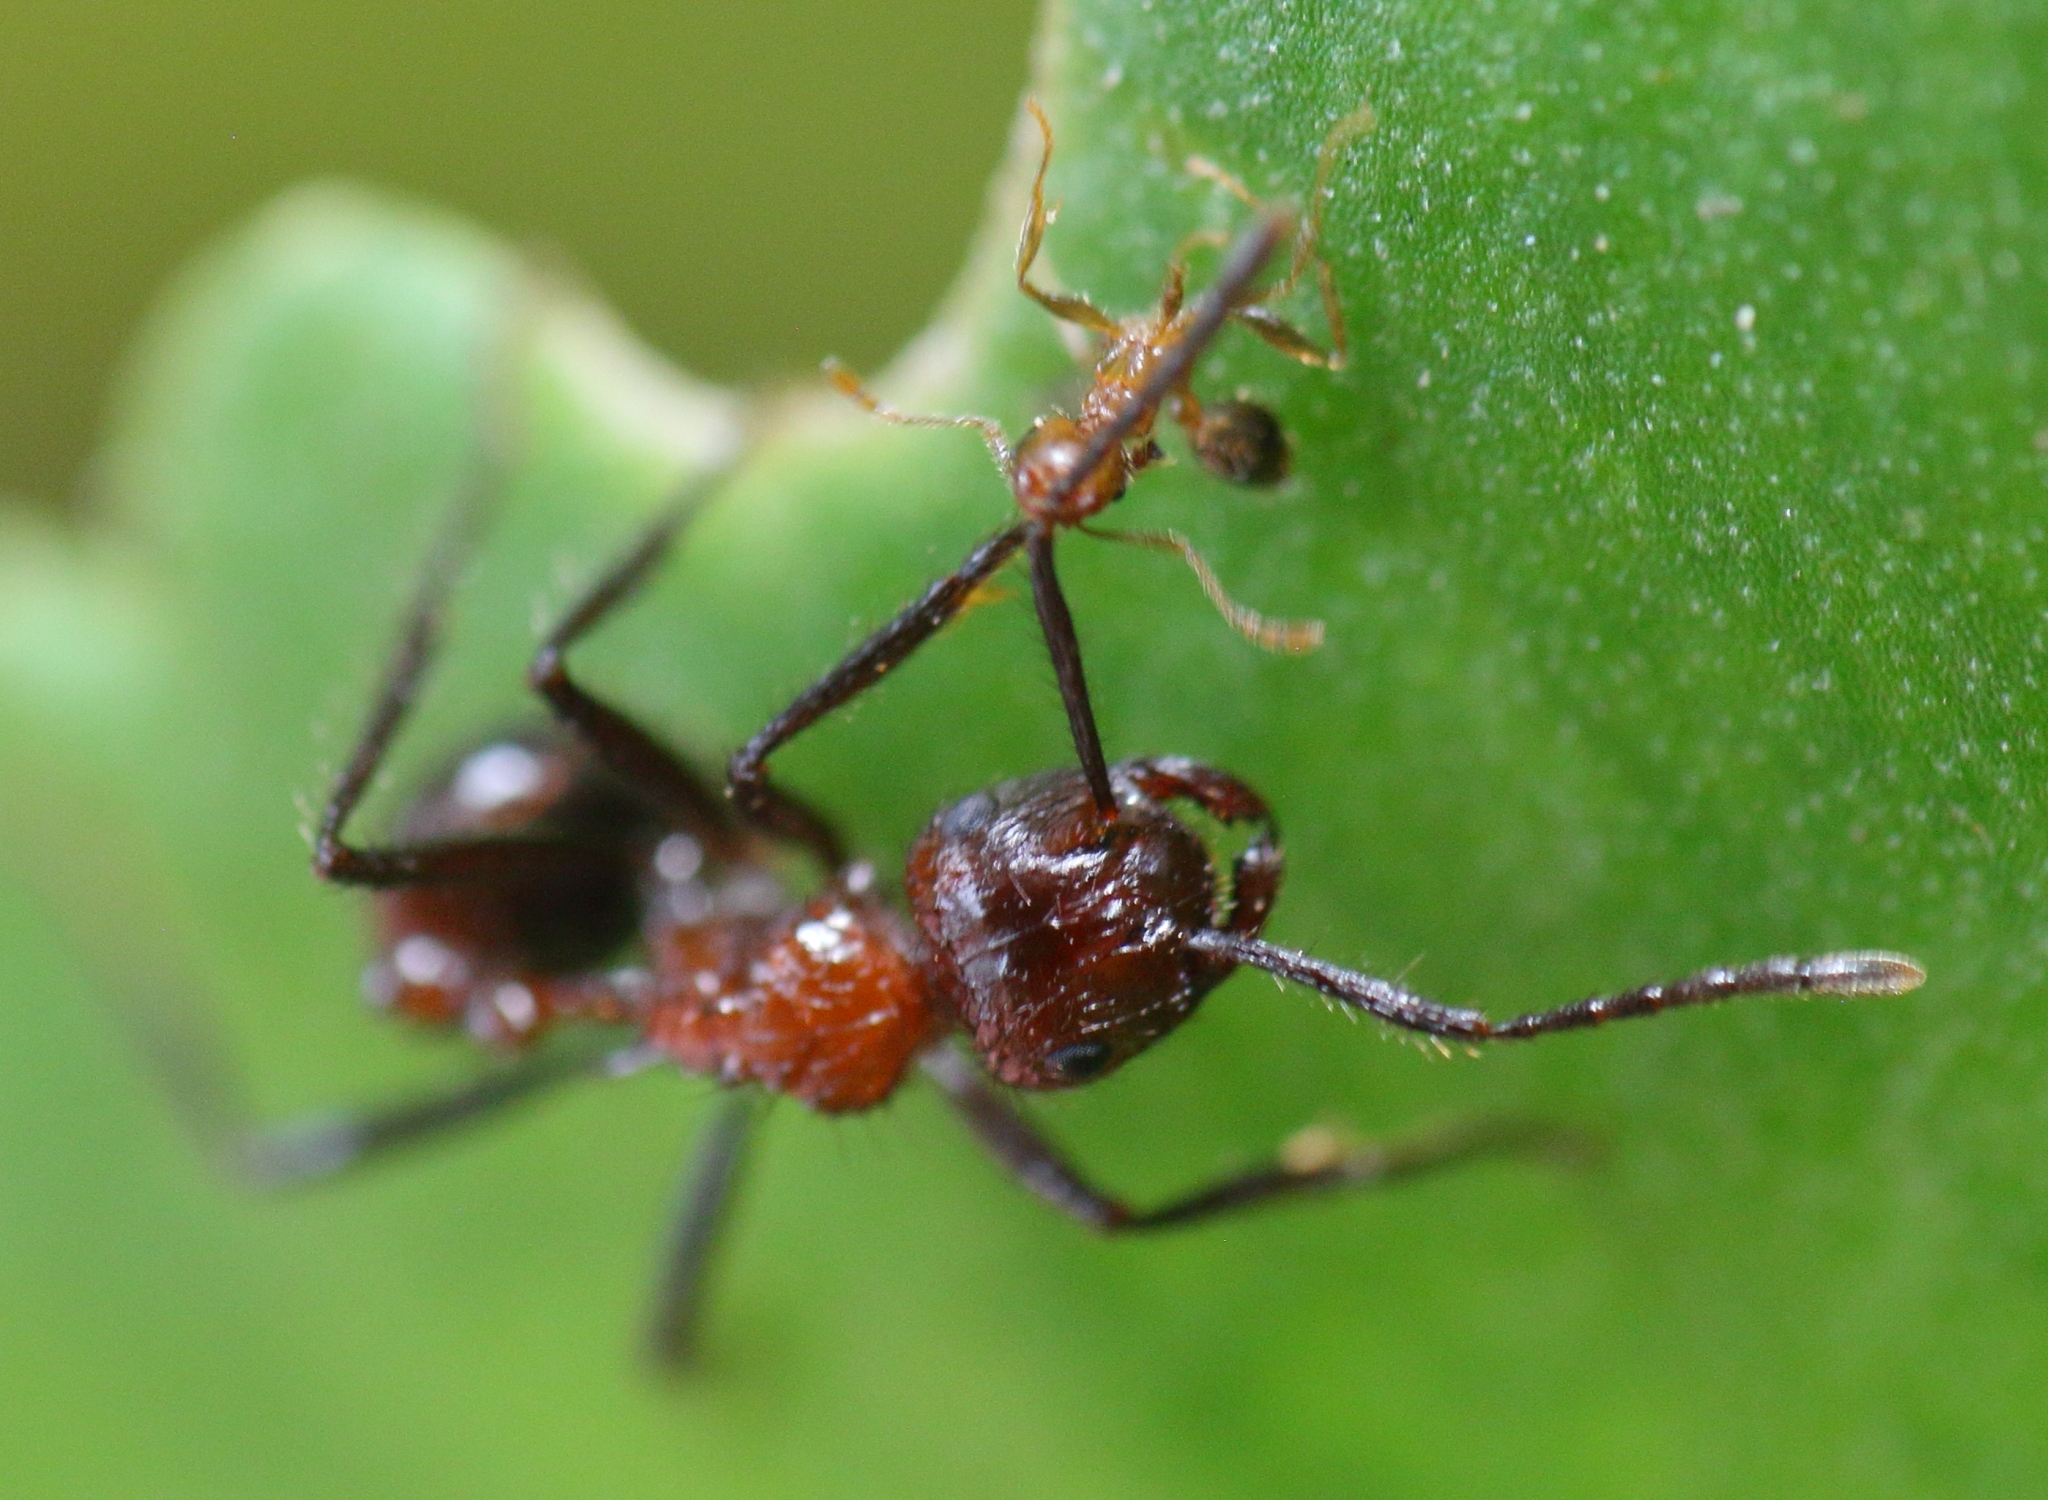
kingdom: Animalia
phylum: Arthropoda
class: Insecta
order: Hymenoptera
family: Formicidae
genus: Myrmicaria
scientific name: Myrmicaria natalensis
